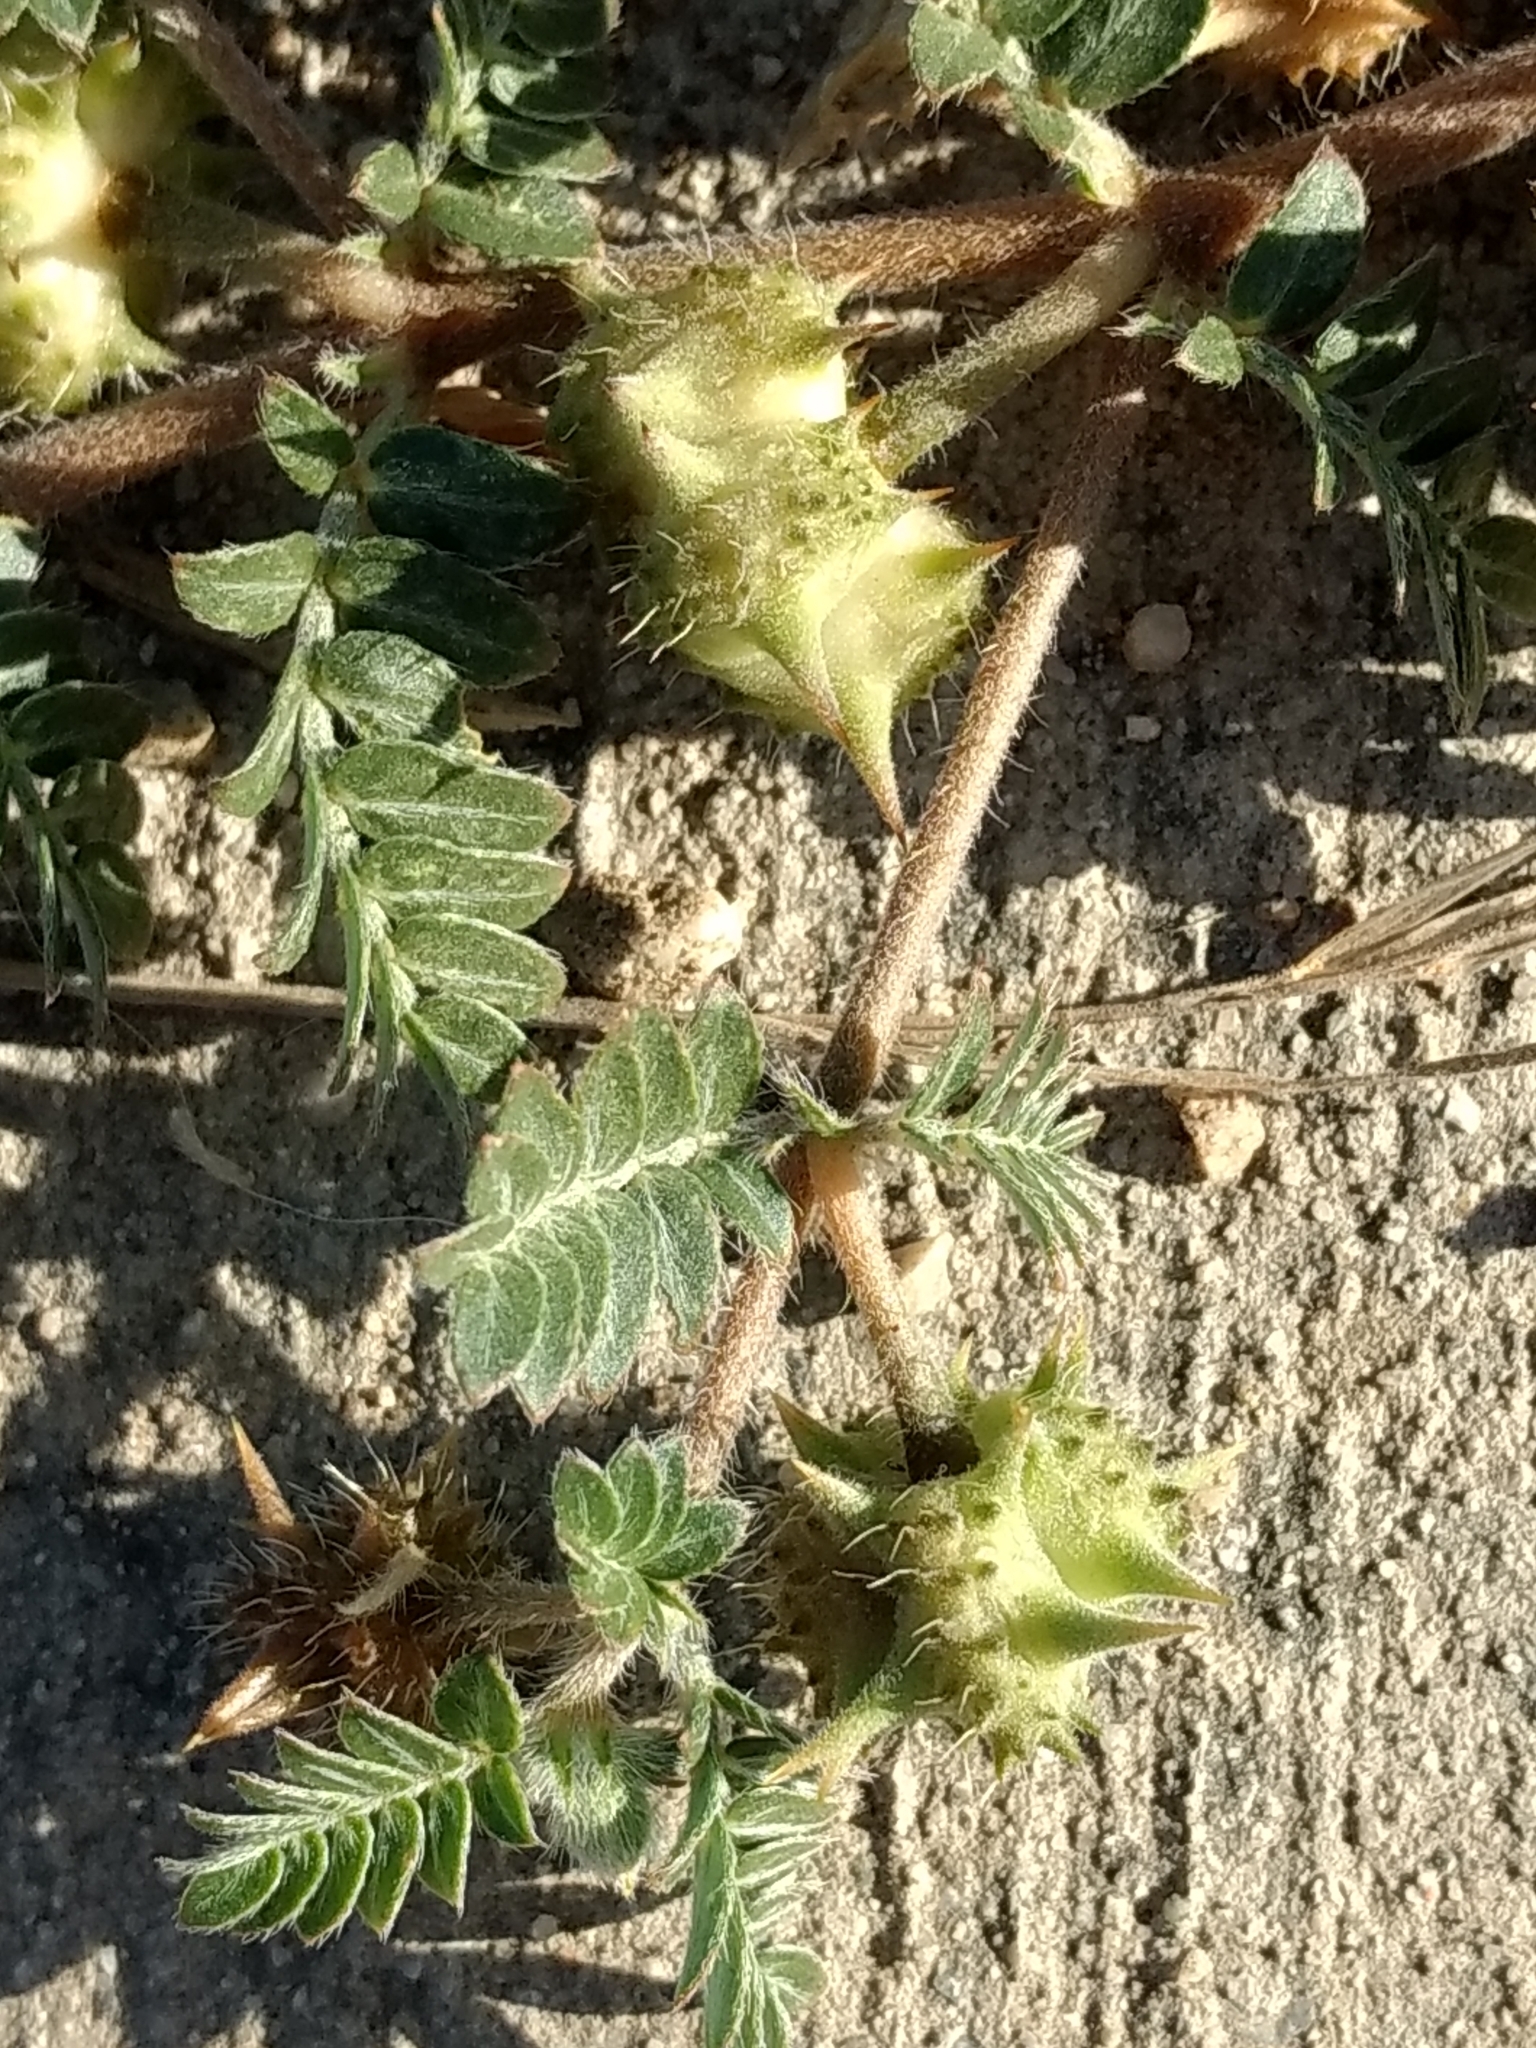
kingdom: Plantae
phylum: Tracheophyta
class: Magnoliopsida
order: Zygophyllales
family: Zygophyllaceae
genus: Tribulus
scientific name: Tribulus terrestris
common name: Puncturevine
